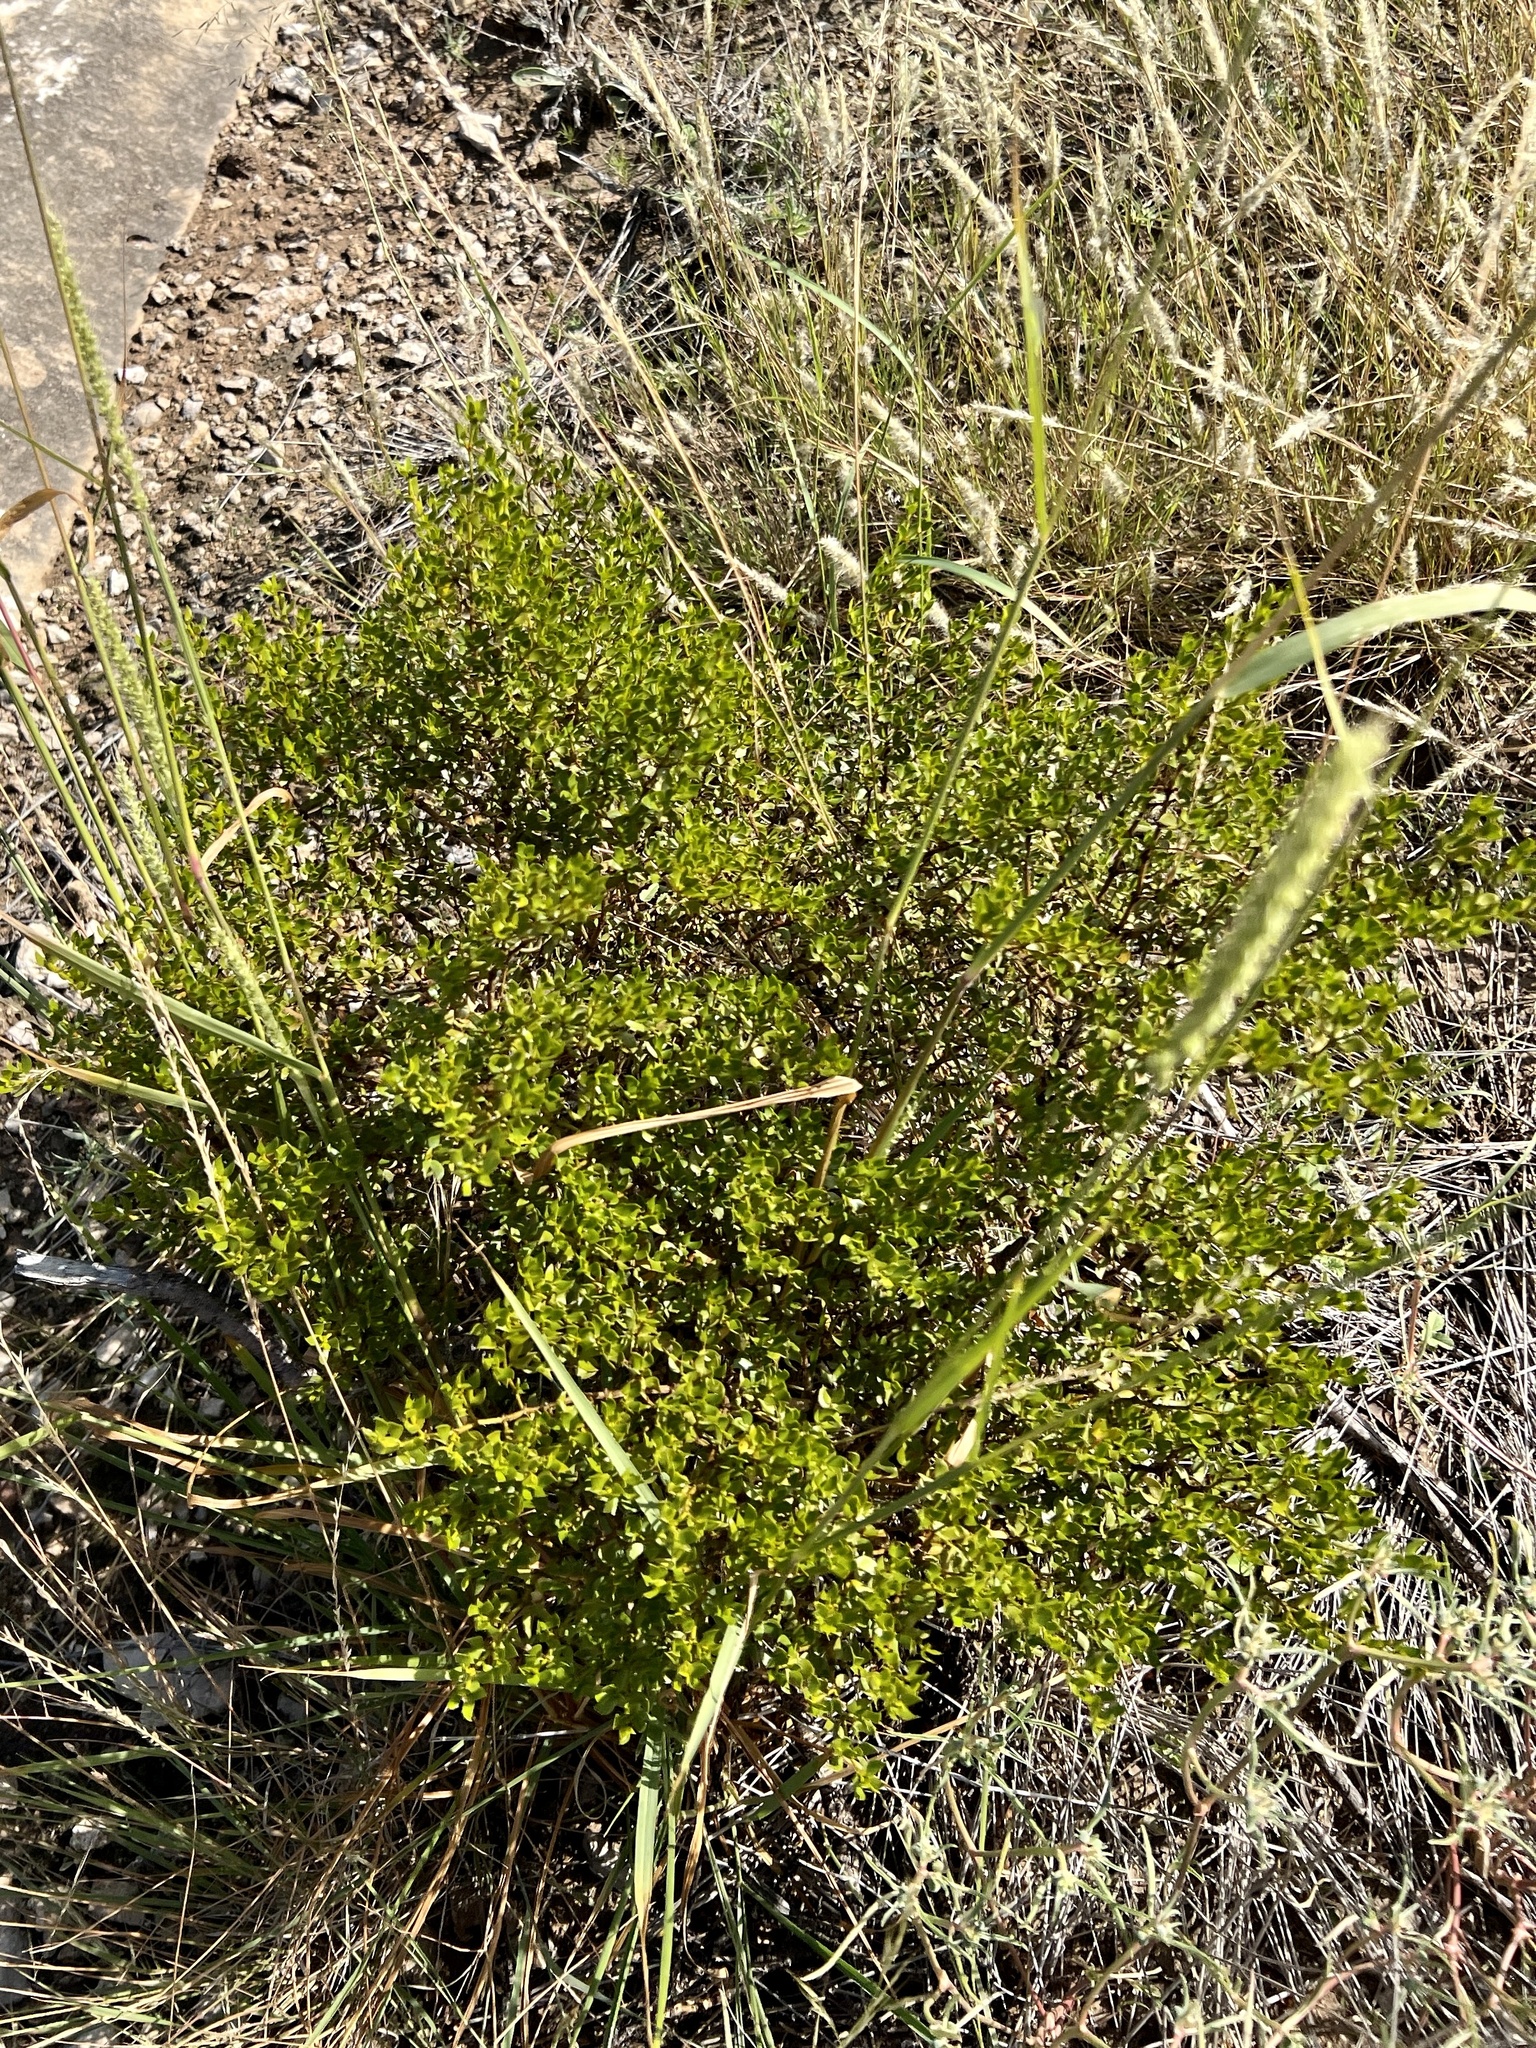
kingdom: Plantae
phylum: Tracheophyta
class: Magnoliopsida
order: Zygophyllales
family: Zygophyllaceae
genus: Larrea
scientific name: Larrea tridentata
